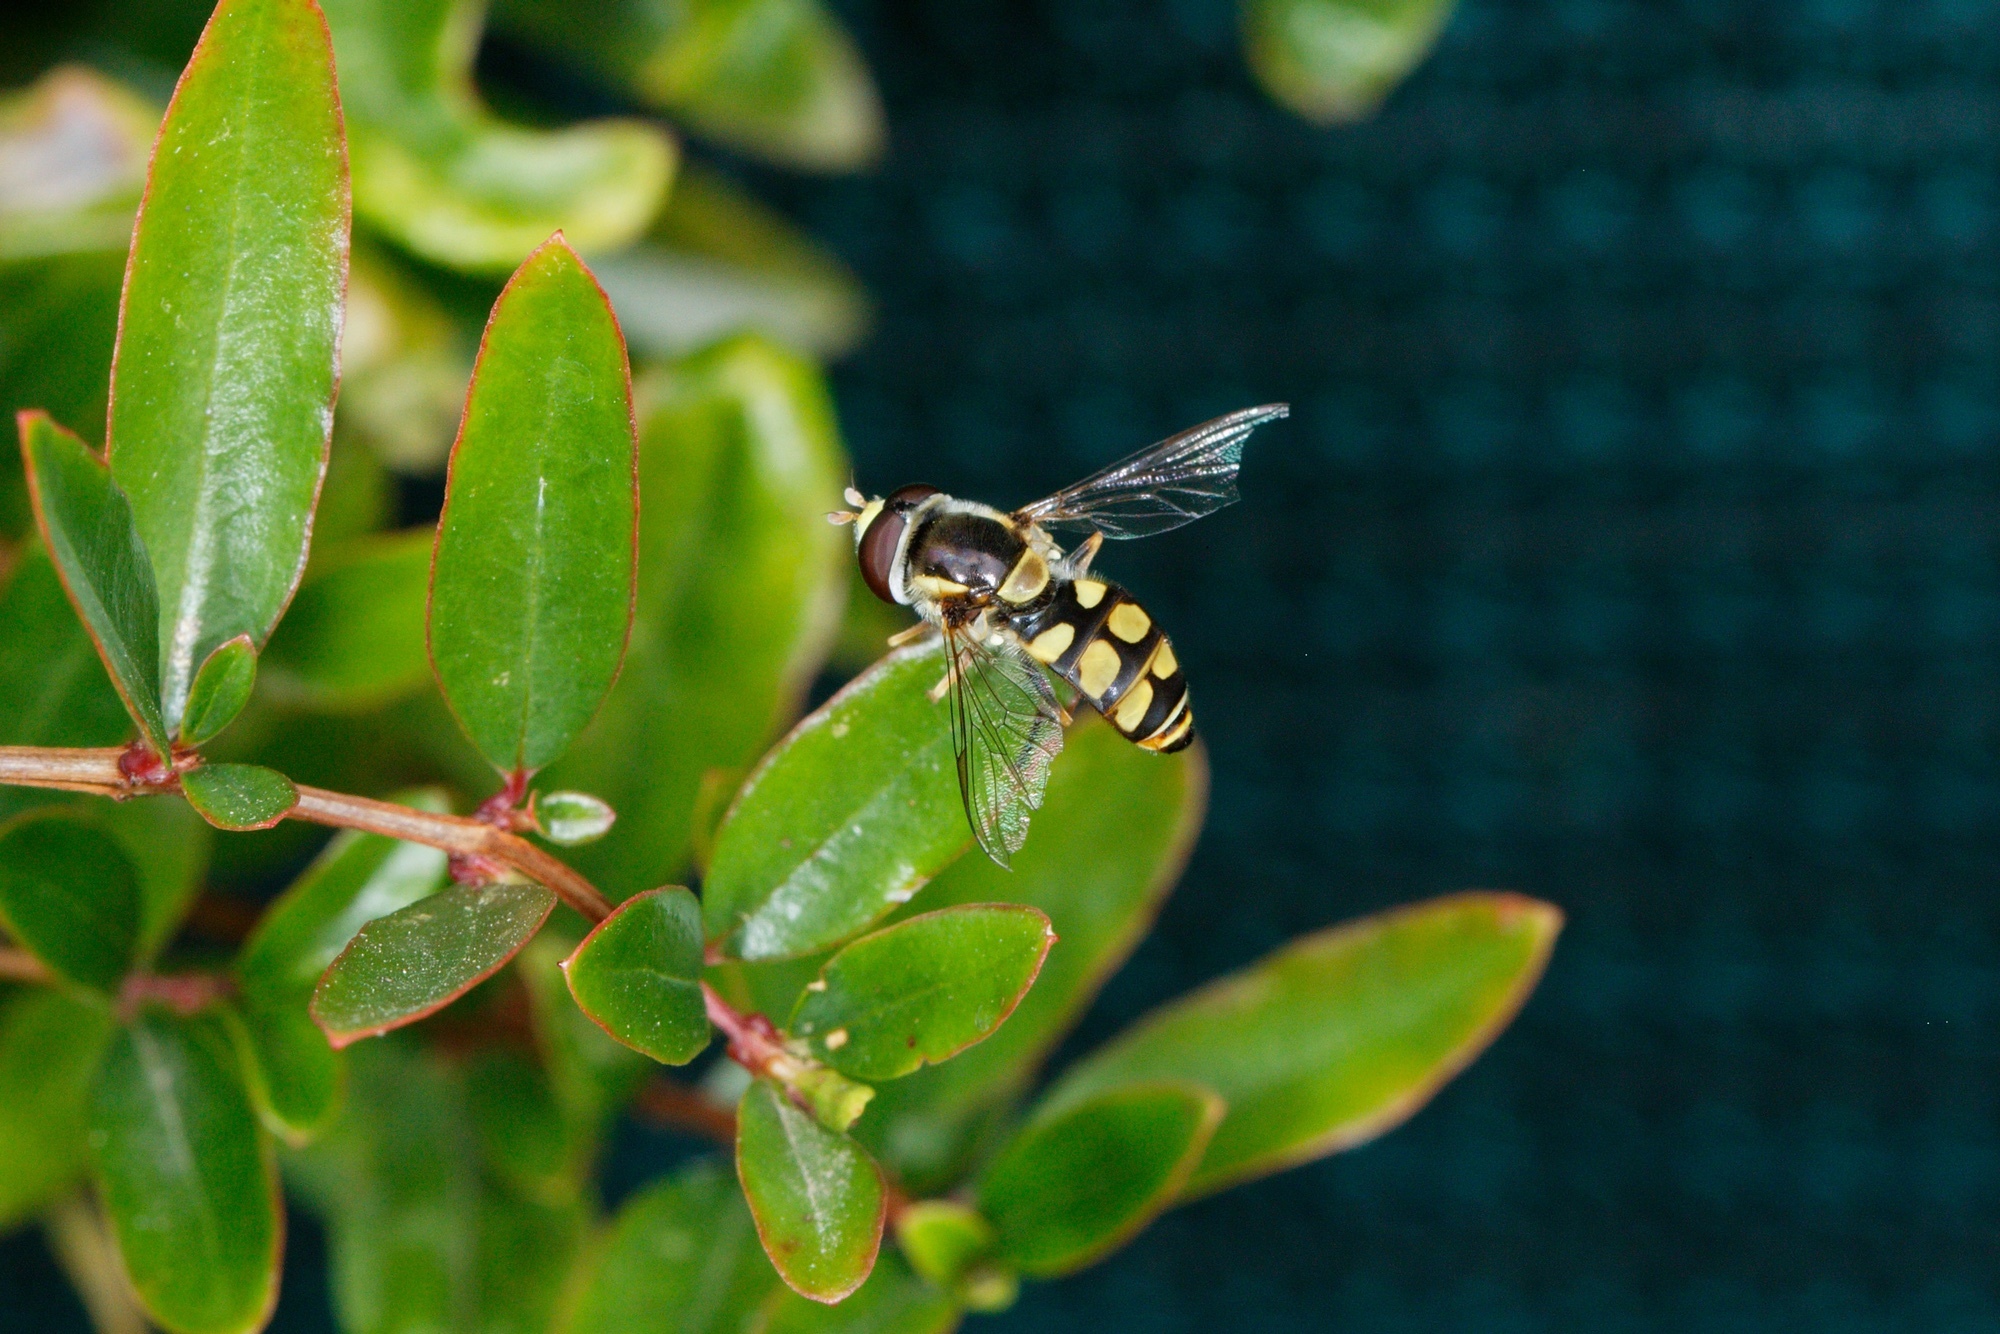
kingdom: Animalia
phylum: Arthropoda
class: Insecta
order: Diptera
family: Syrphidae
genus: Simosyrphus
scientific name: Simosyrphus grandicornis
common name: Hoverfly
